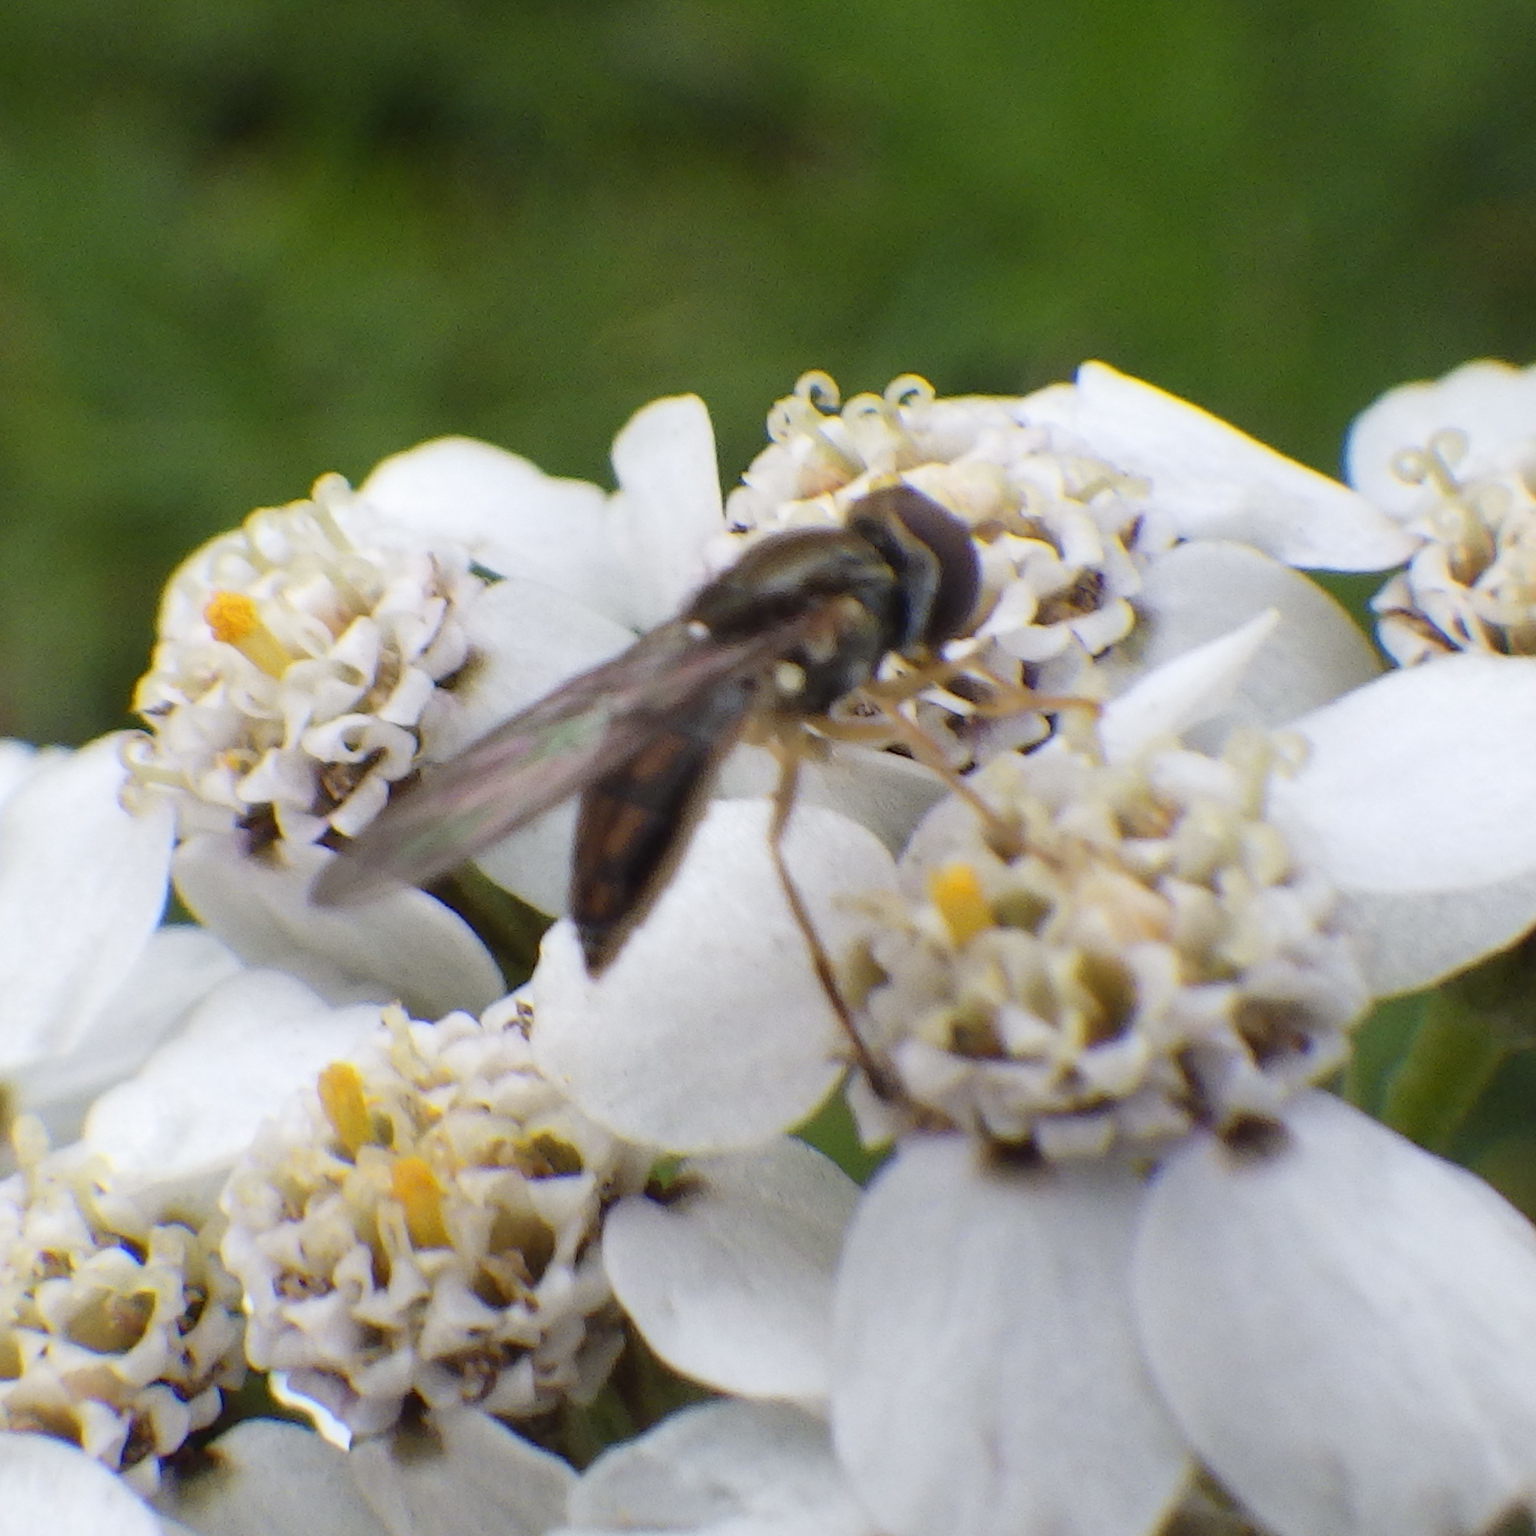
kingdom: Animalia
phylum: Arthropoda
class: Insecta
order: Diptera
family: Syrphidae
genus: Toxomerus
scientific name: Toxomerus marginatus
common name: Syrphid fly
